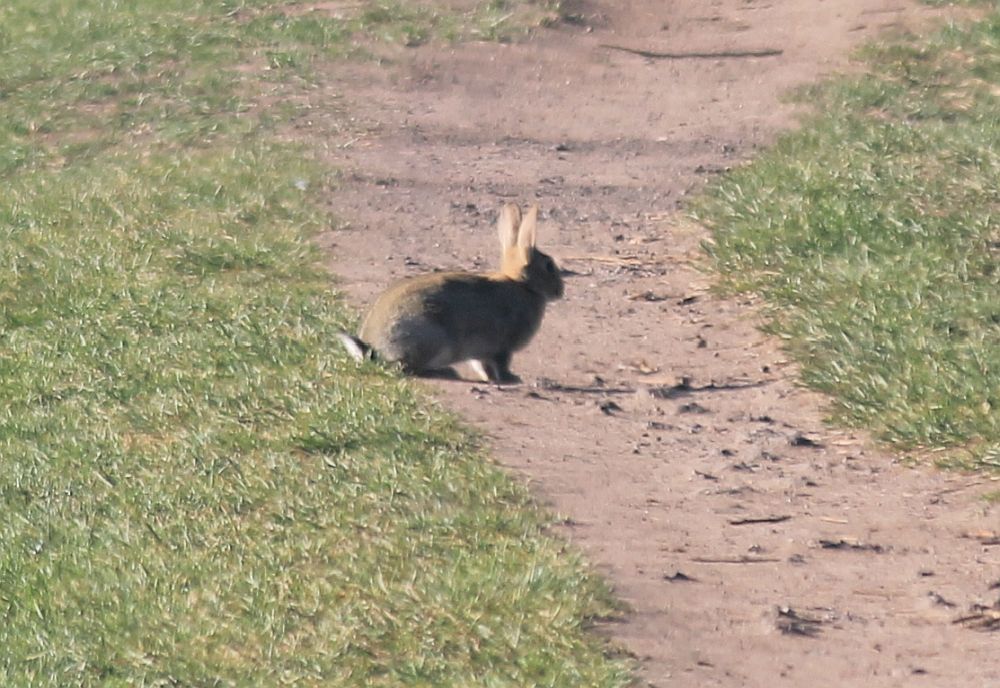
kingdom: Animalia
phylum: Chordata
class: Mammalia
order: Lagomorpha
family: Leporidae
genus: Oryctolagus
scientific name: Oryctolagus cuniculus
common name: European rabbit
